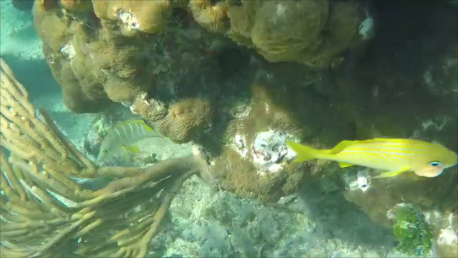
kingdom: Animalia
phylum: Chordata
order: Perciformes
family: Haemulidae
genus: Haemulon
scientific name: Haemulon flavolineatum
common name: French grunt
